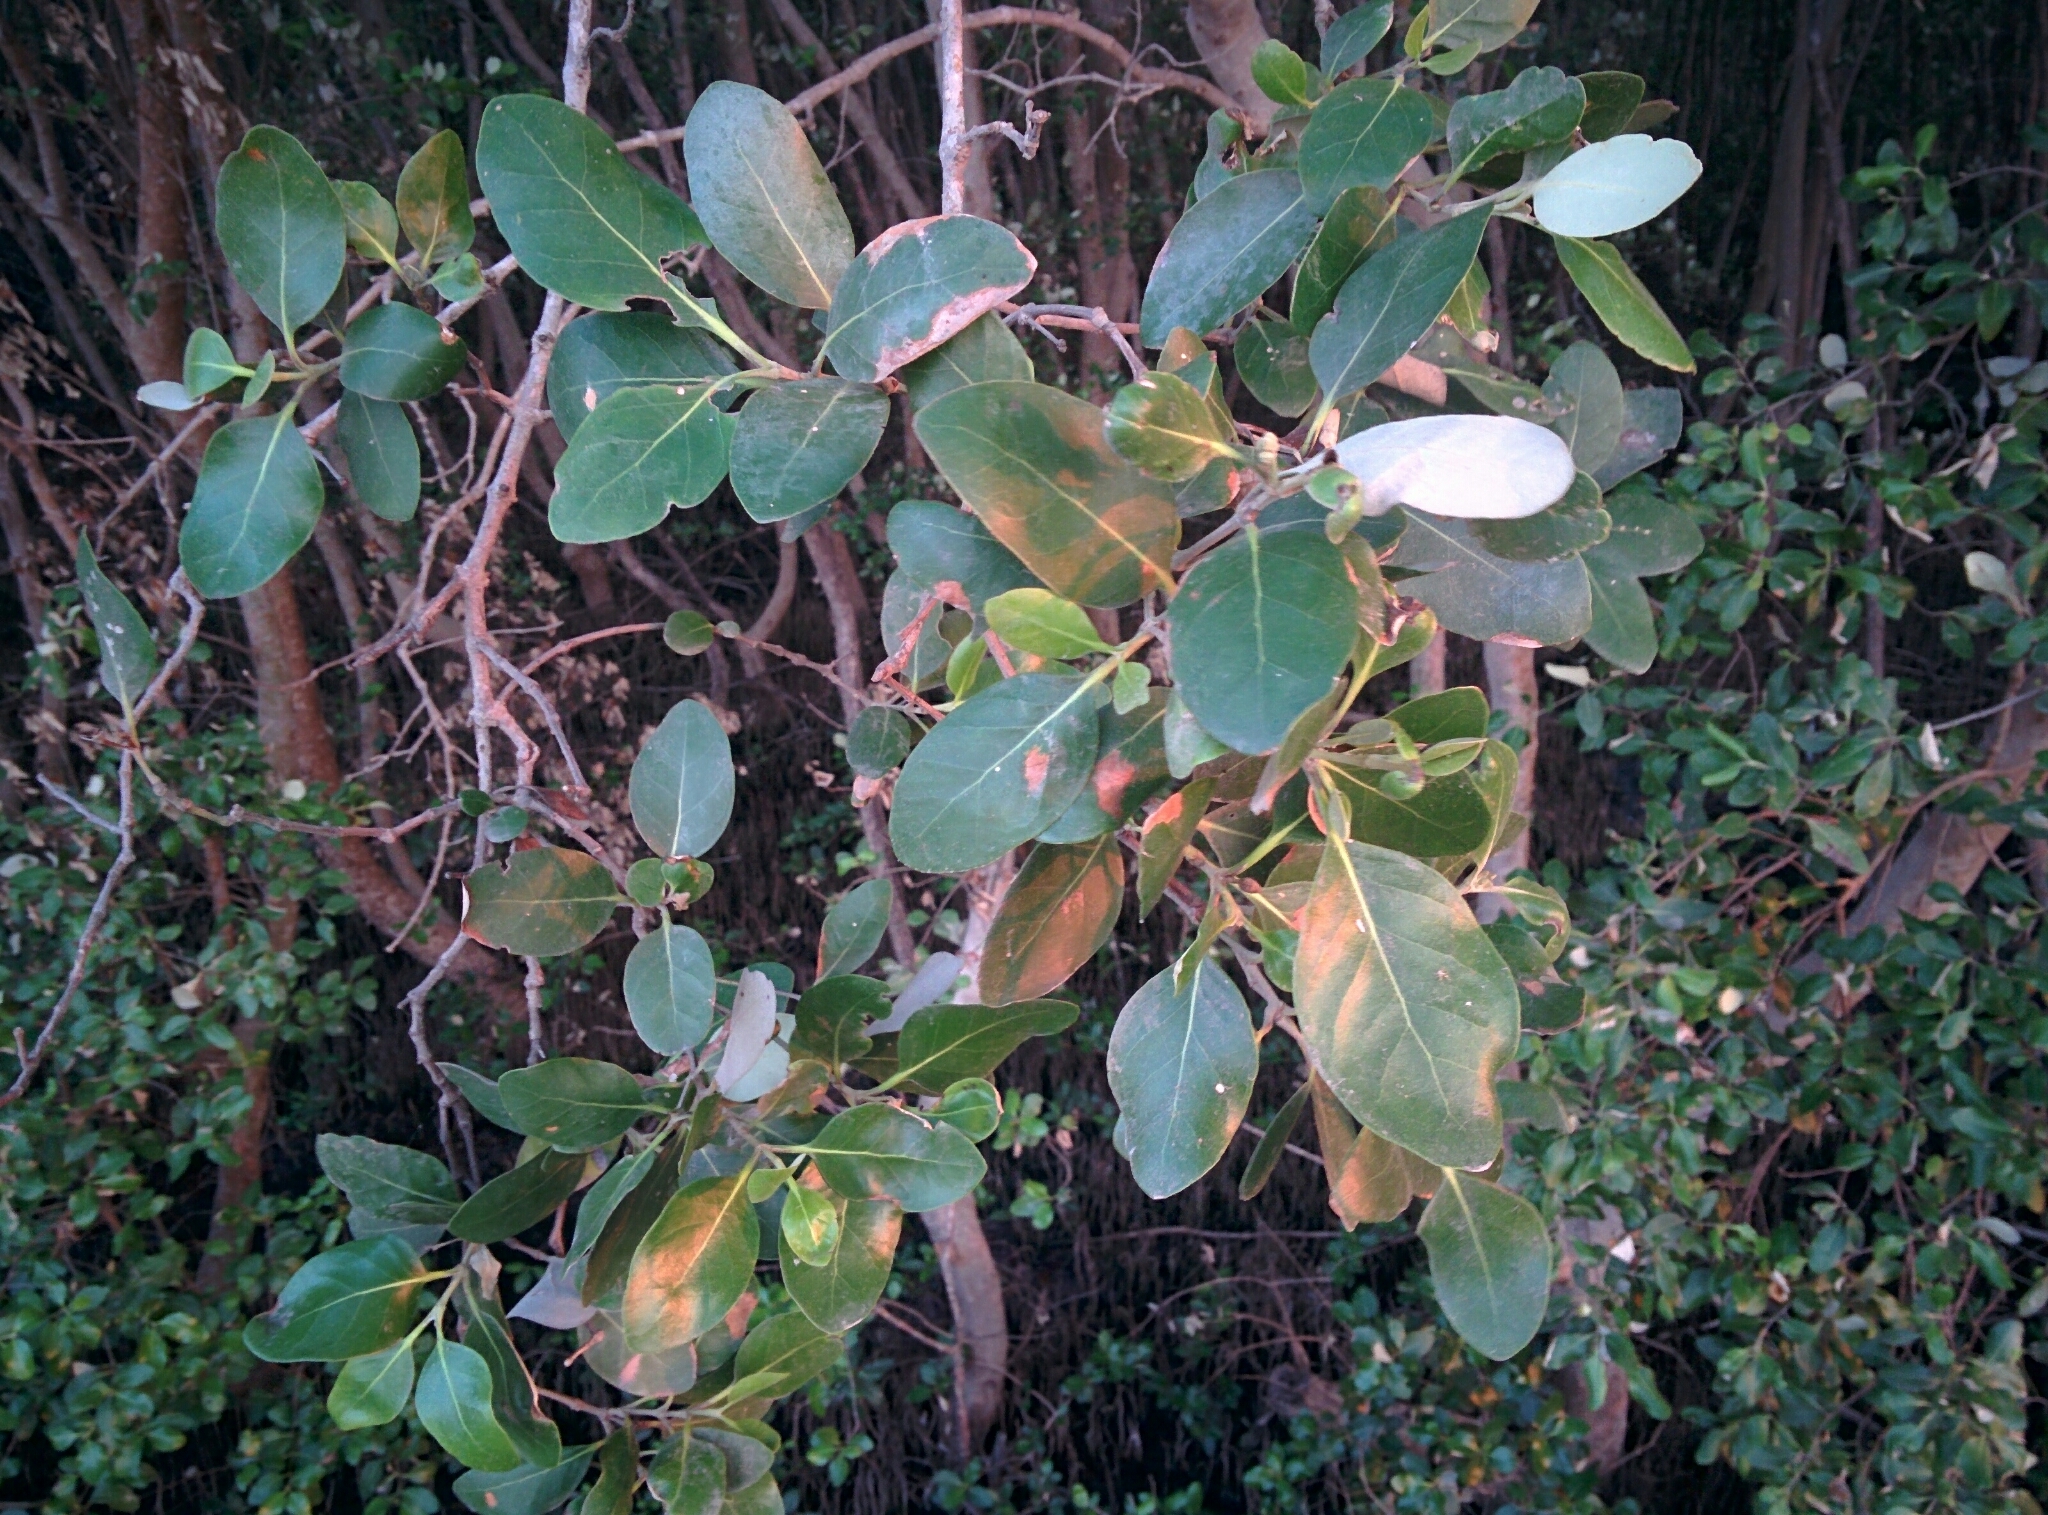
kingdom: Plantae
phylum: Tracheophyta
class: Magnoliopsida
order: Lamiales
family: Acanthaceae
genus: Avicennia
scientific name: Avicennia marina
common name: Gray mangrove
